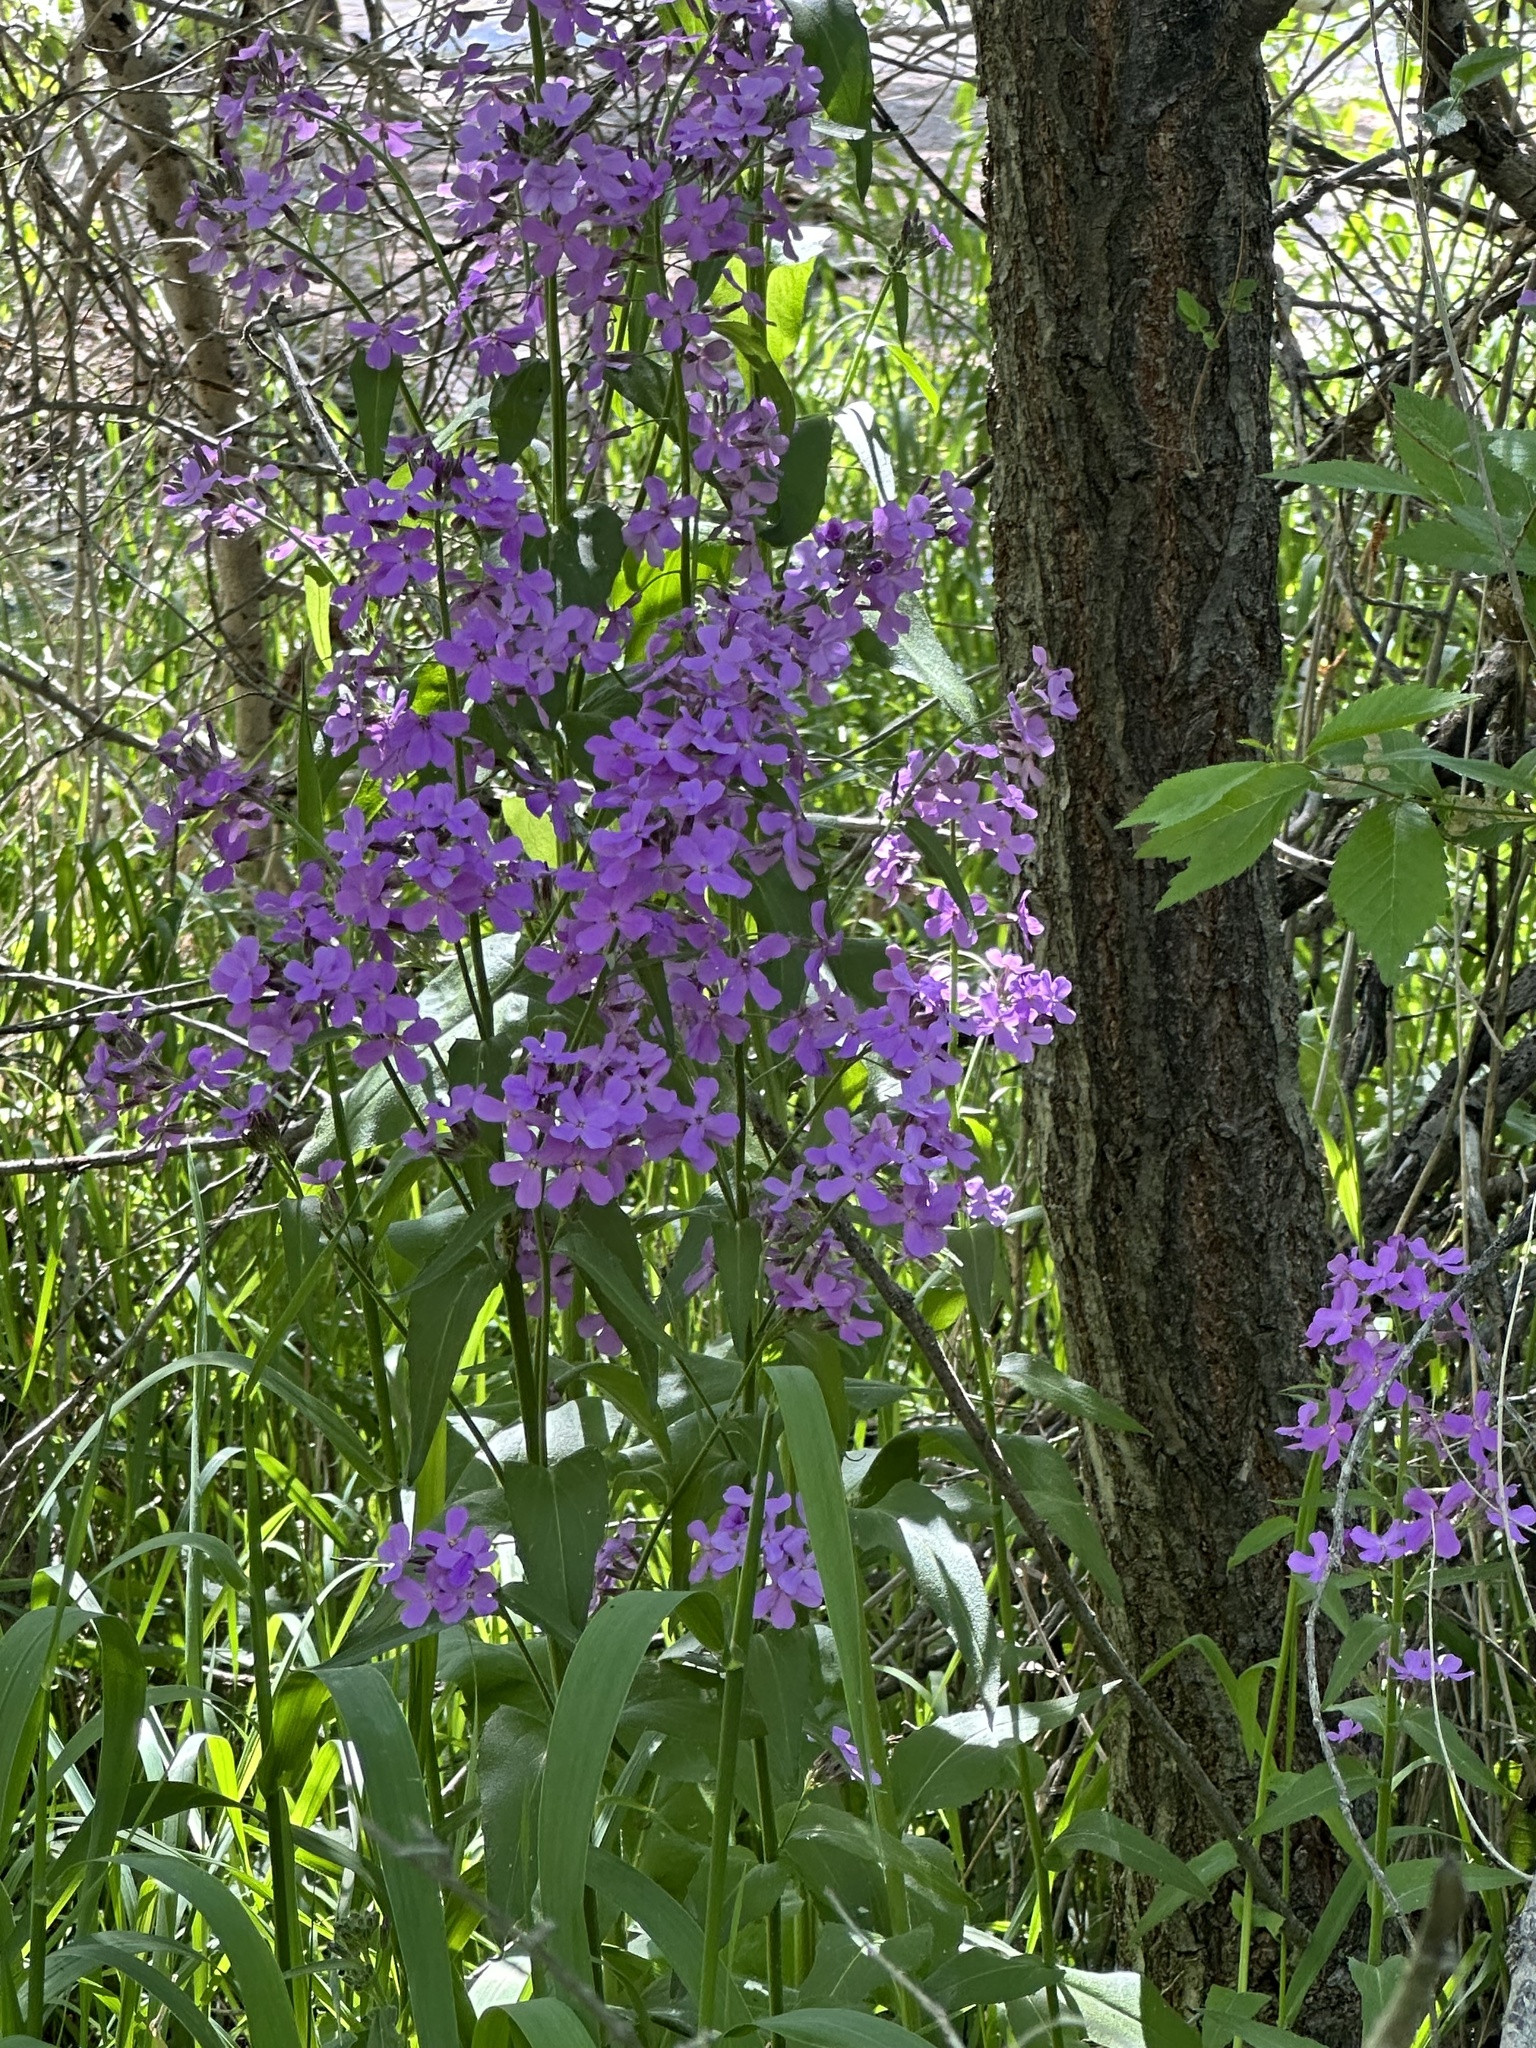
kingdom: Plantae
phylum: Tracheophyta
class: Magnoliopsida
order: Brassicales
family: Brassicaceae
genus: Hesperis
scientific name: Hesperis matronalis
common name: Dame's-violet
